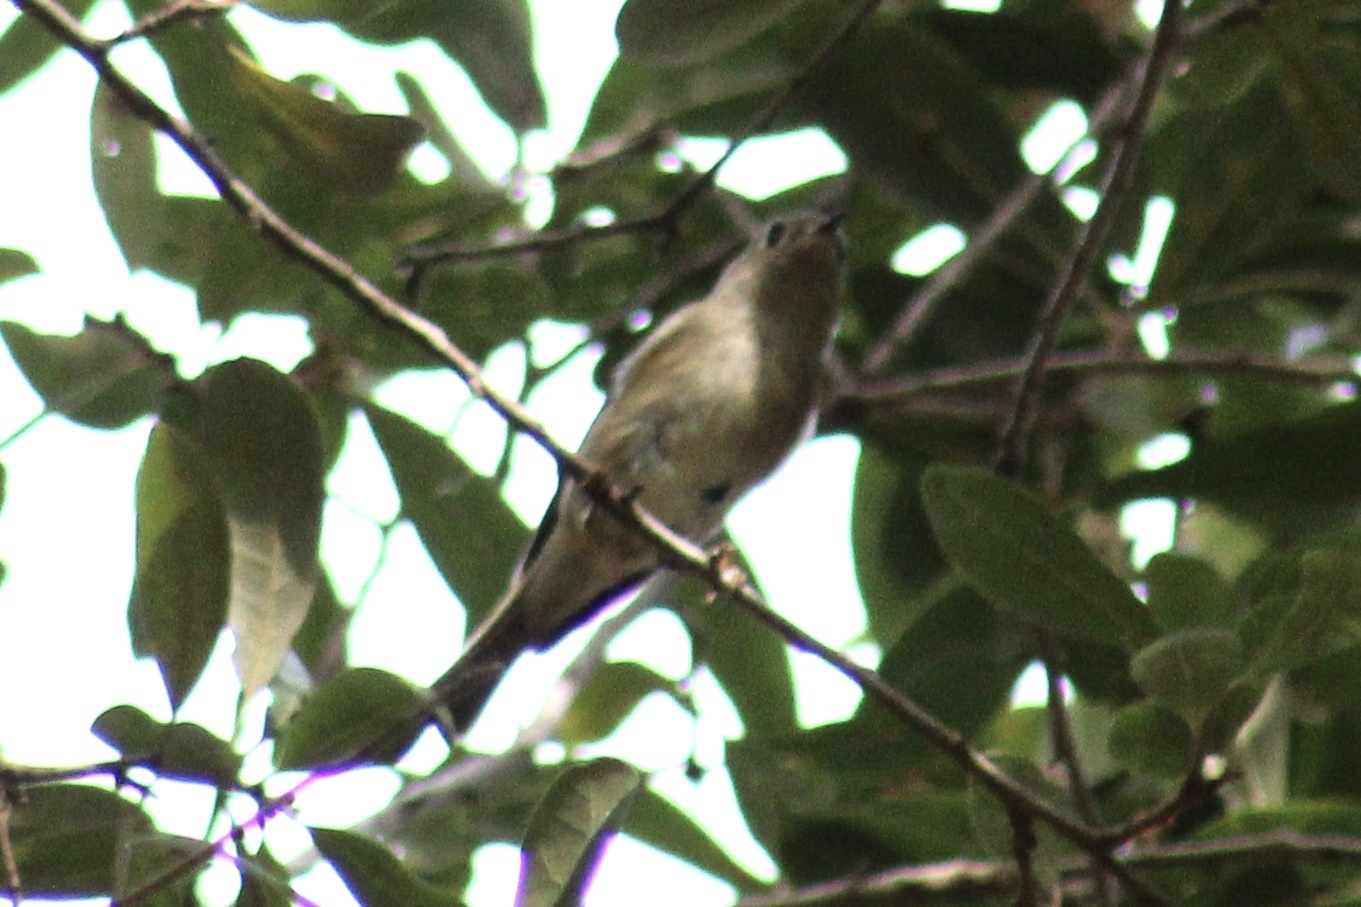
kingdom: Animalia
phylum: Chordata
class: Aves
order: Passeriformes
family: Regulidae
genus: Regulus
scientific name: Regulus calendula
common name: Ruby-crowned kinglet
